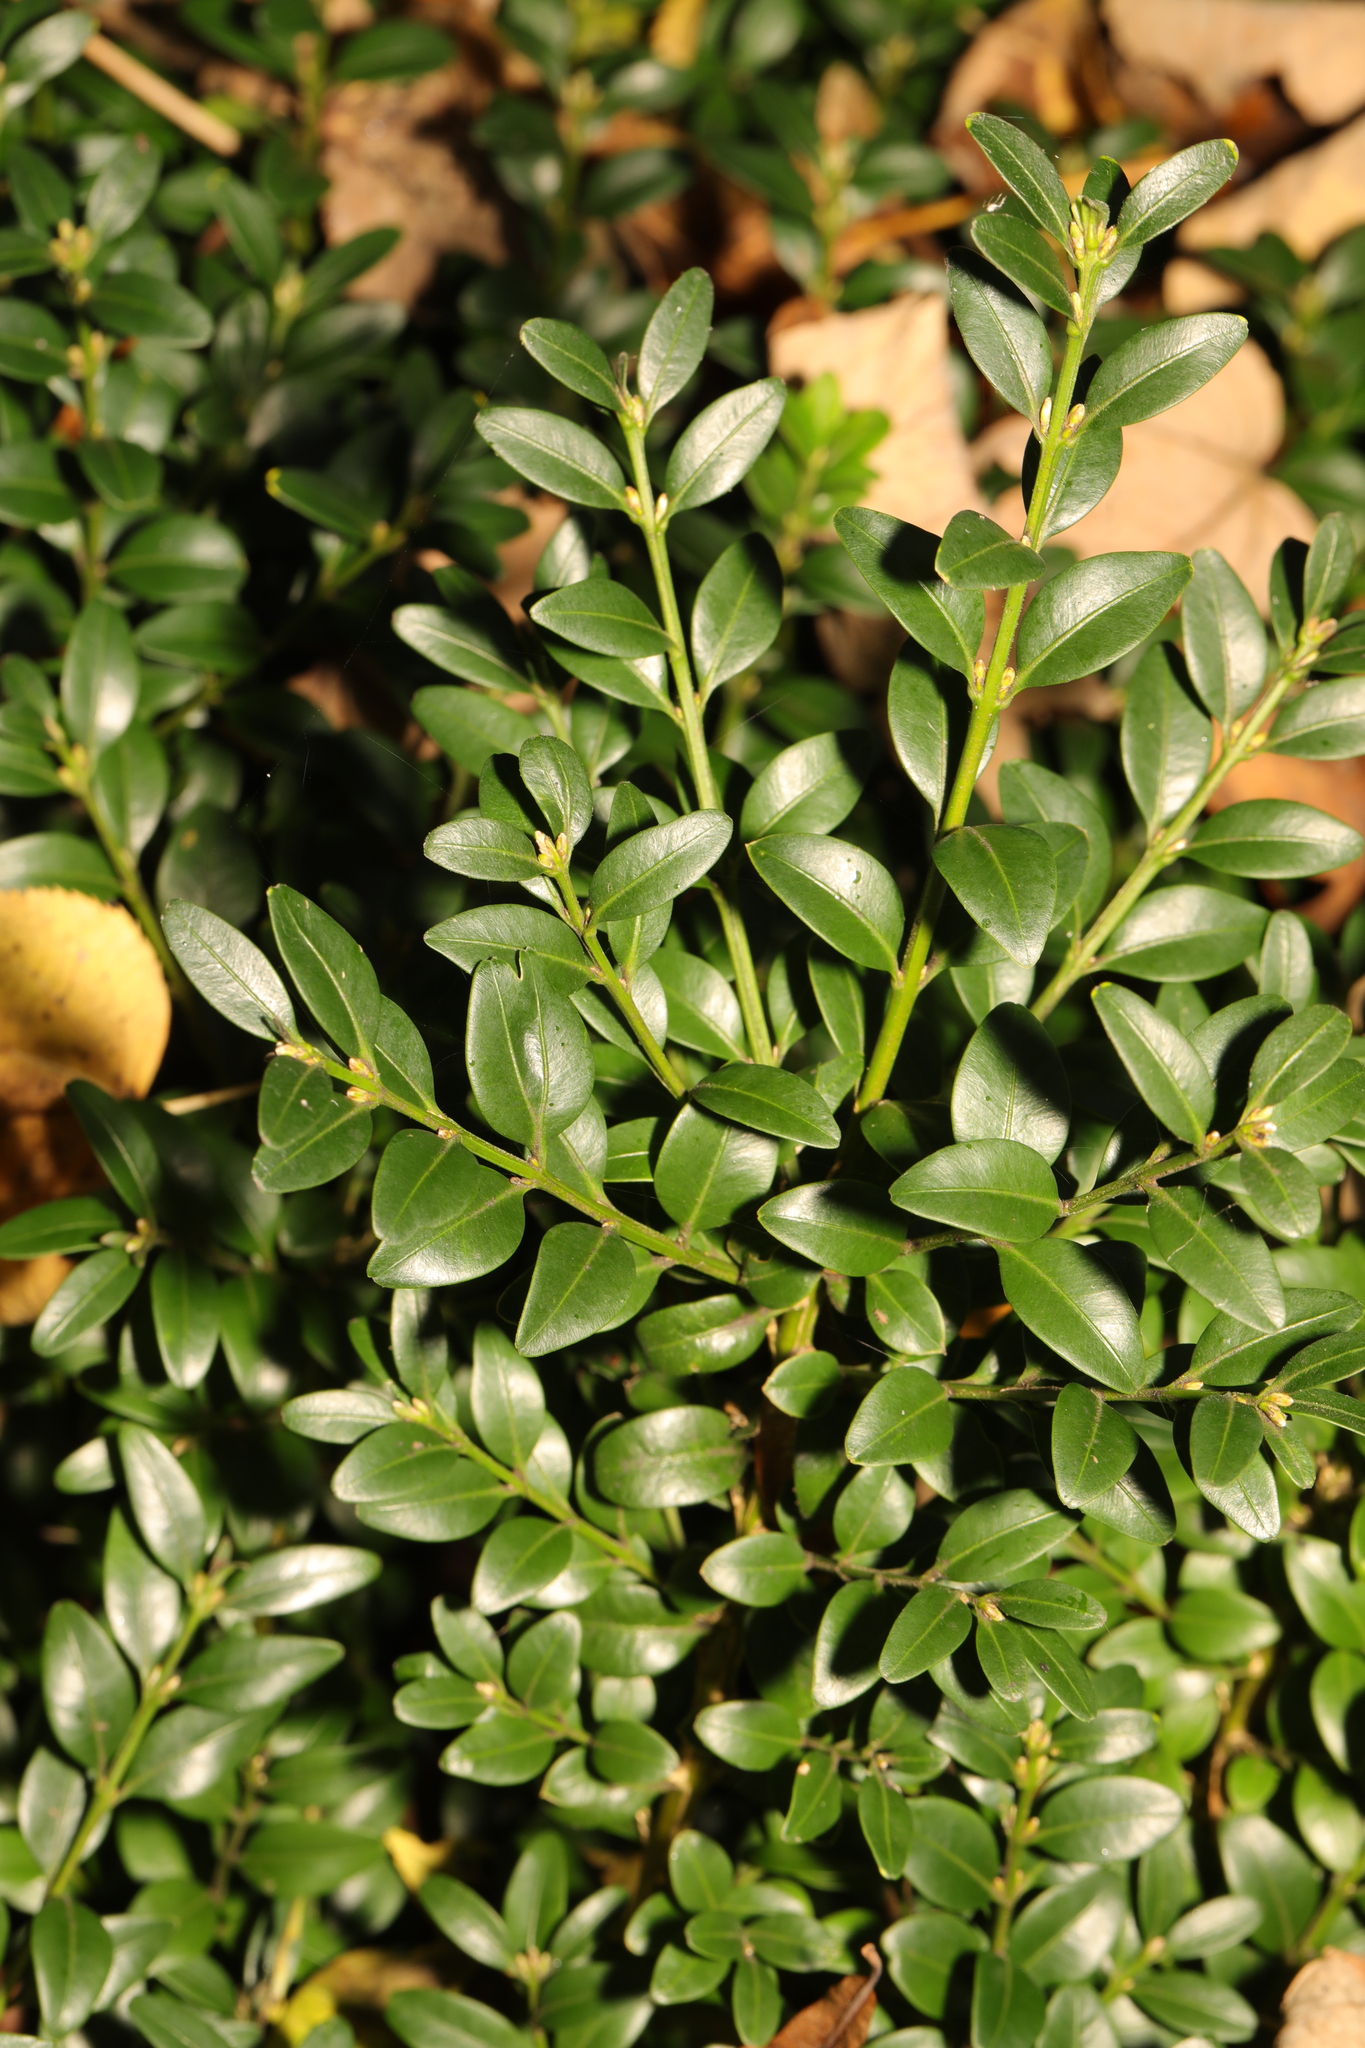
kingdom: Plantae
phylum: Tracheophyta
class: Magnoliopsida
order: Buxales
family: Buxaceae
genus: Buxus
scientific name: Buxus sempervirens
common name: Box
